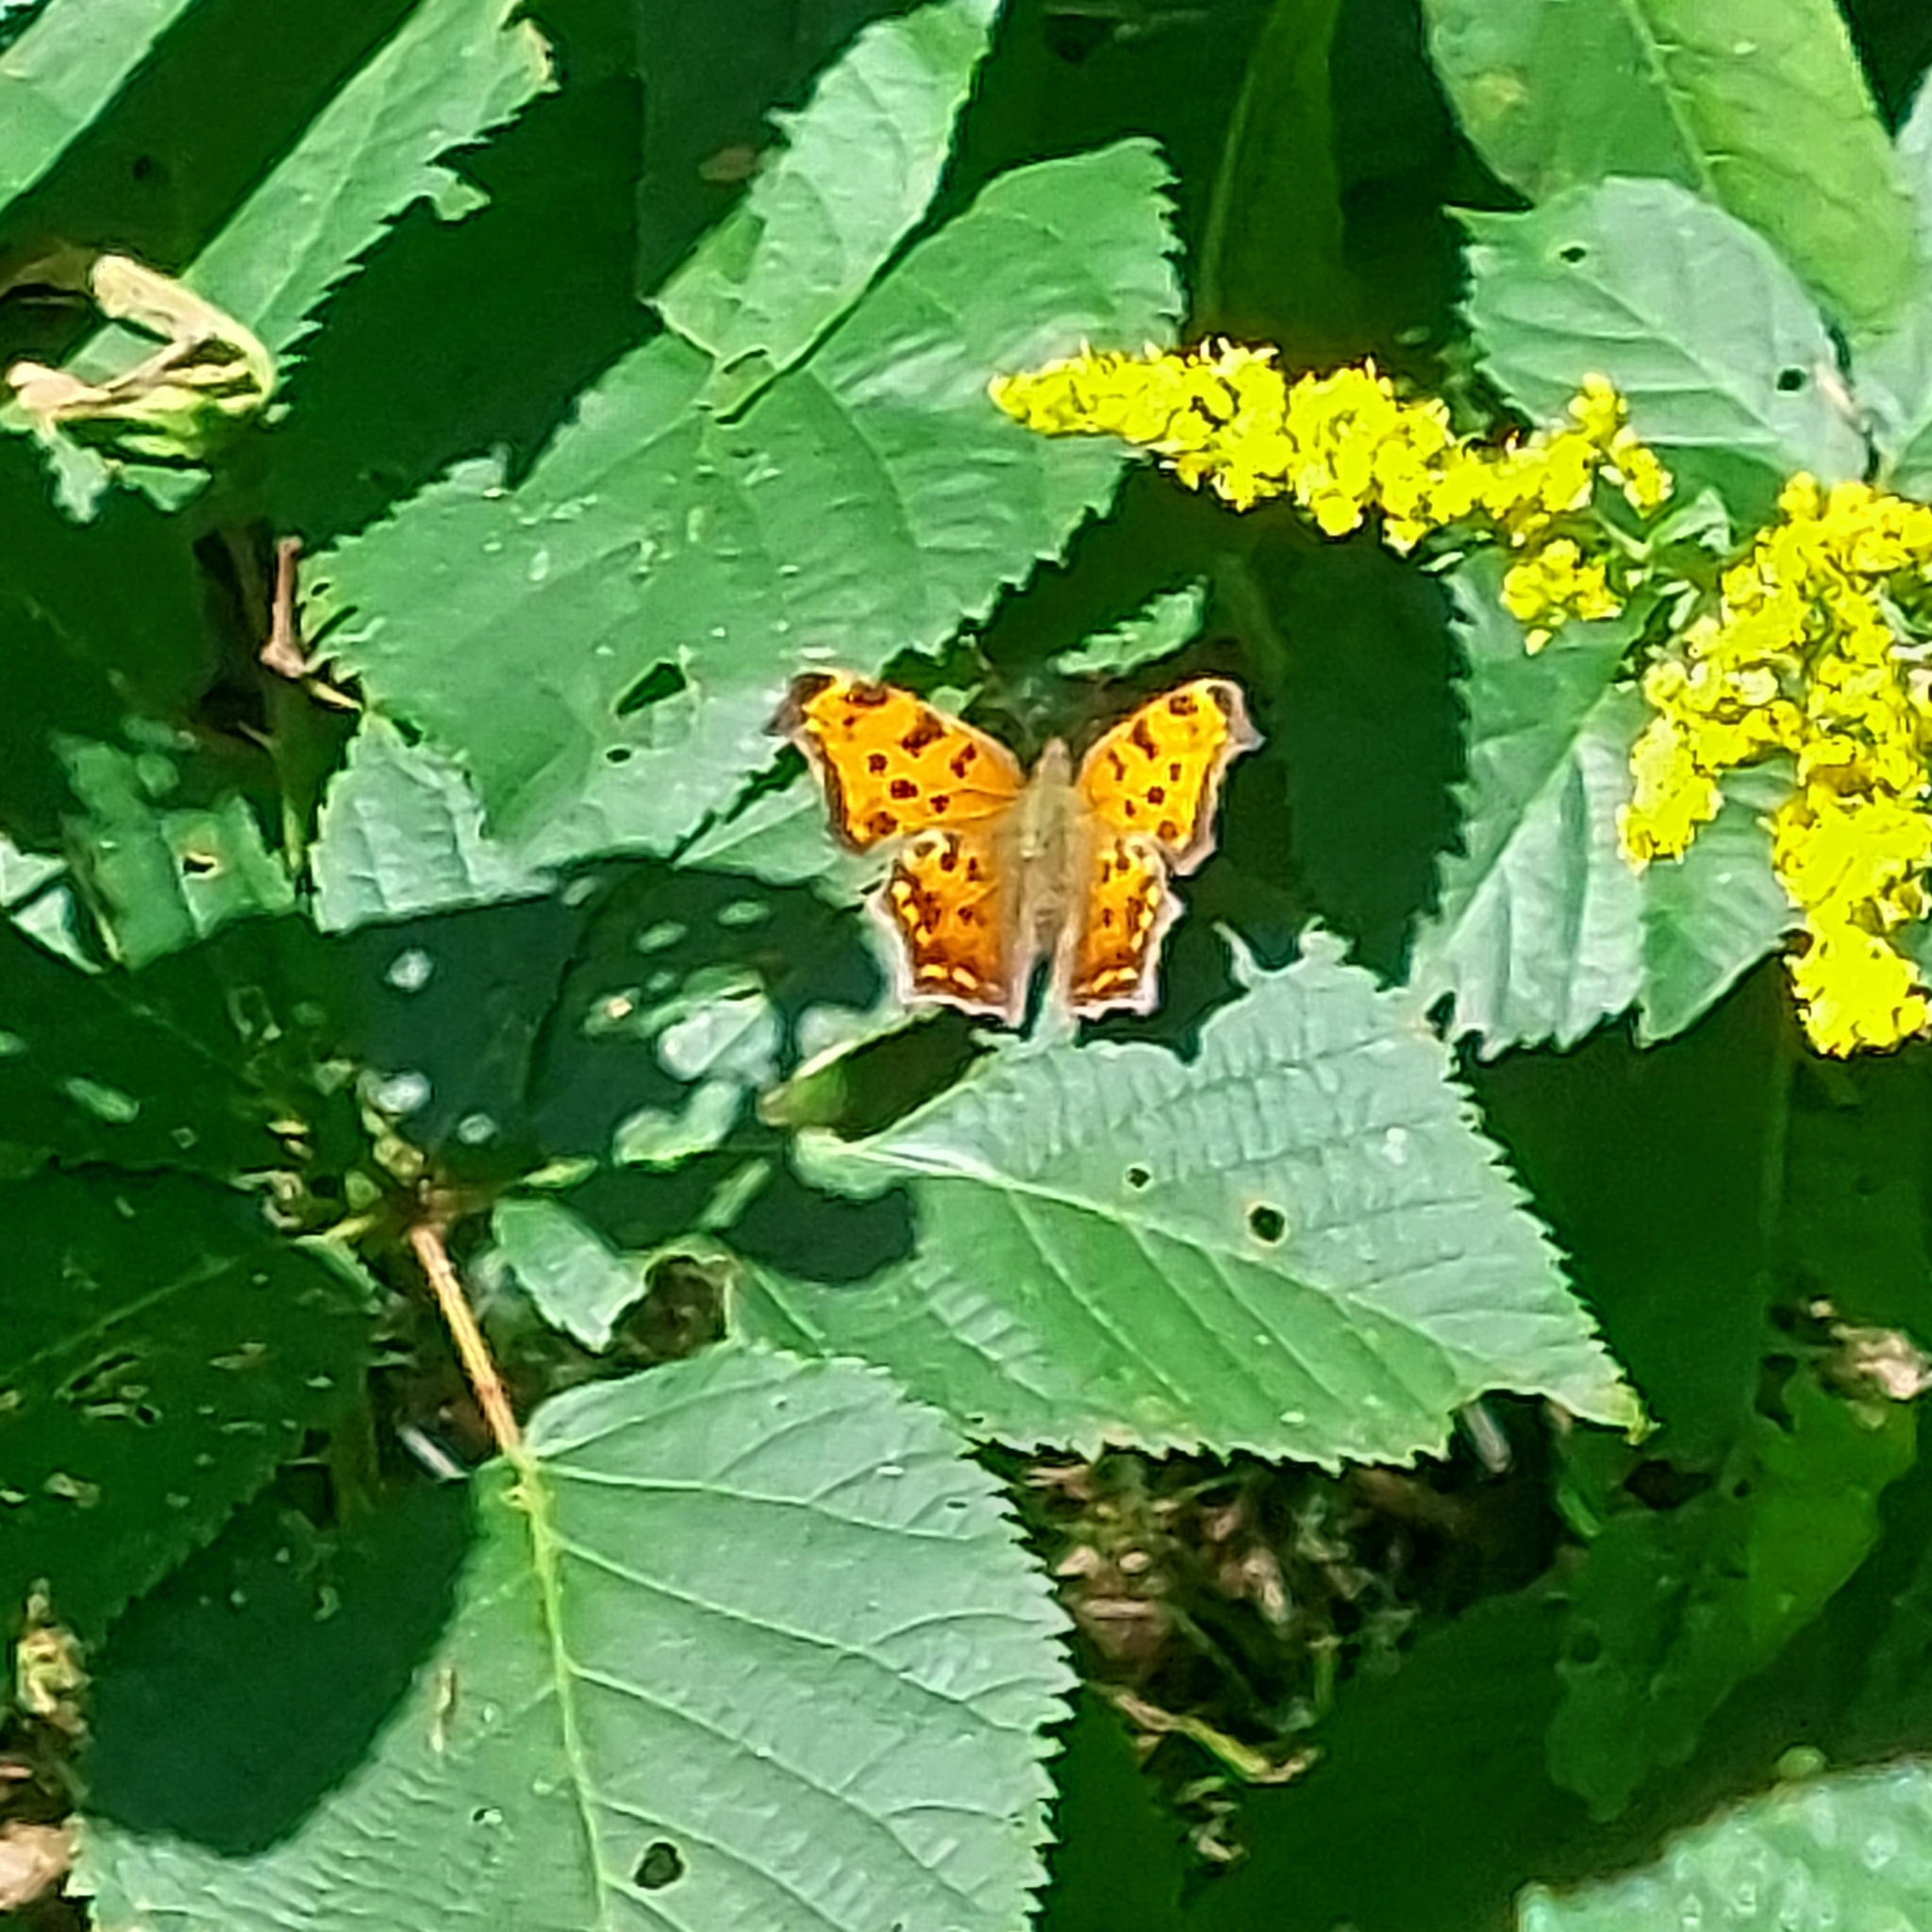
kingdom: Animalia
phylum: Arthropoda
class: Insecta
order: Lepidoptera
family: Nymphalidae
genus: Polygonia
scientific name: Polygonia comma
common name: Eastern comma
